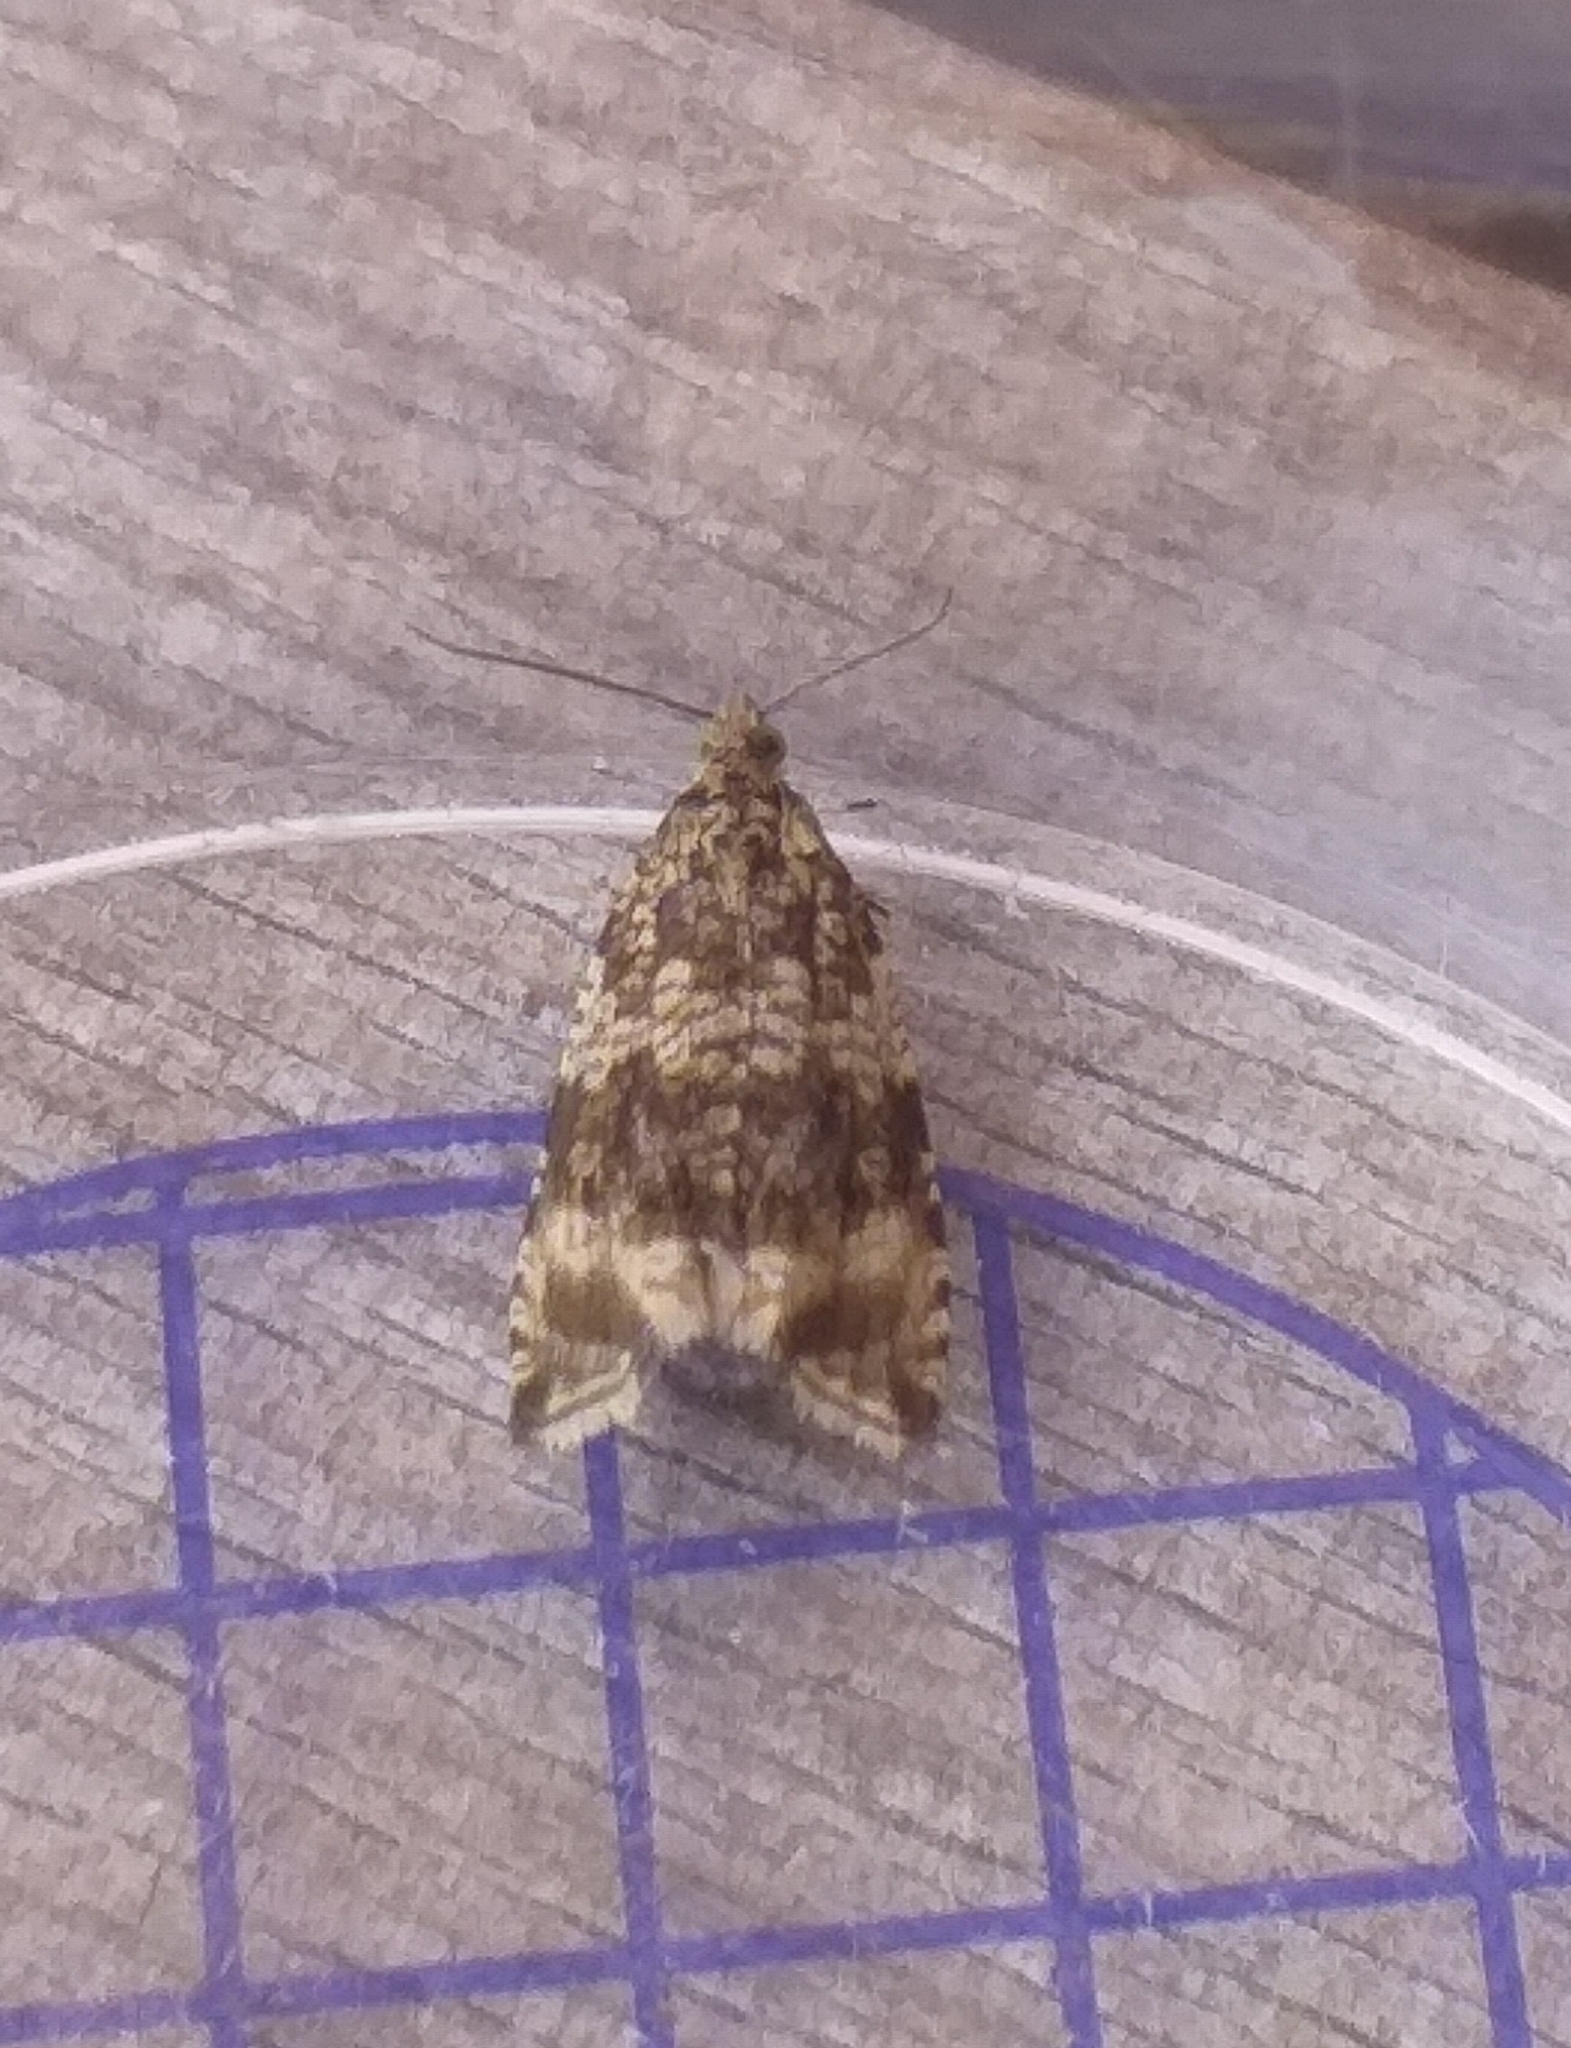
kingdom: Animalia
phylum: Arthropoda
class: Insecta
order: Lepidoptera
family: Tortricidae
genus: Syricoris
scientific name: Syricoris lacunana
